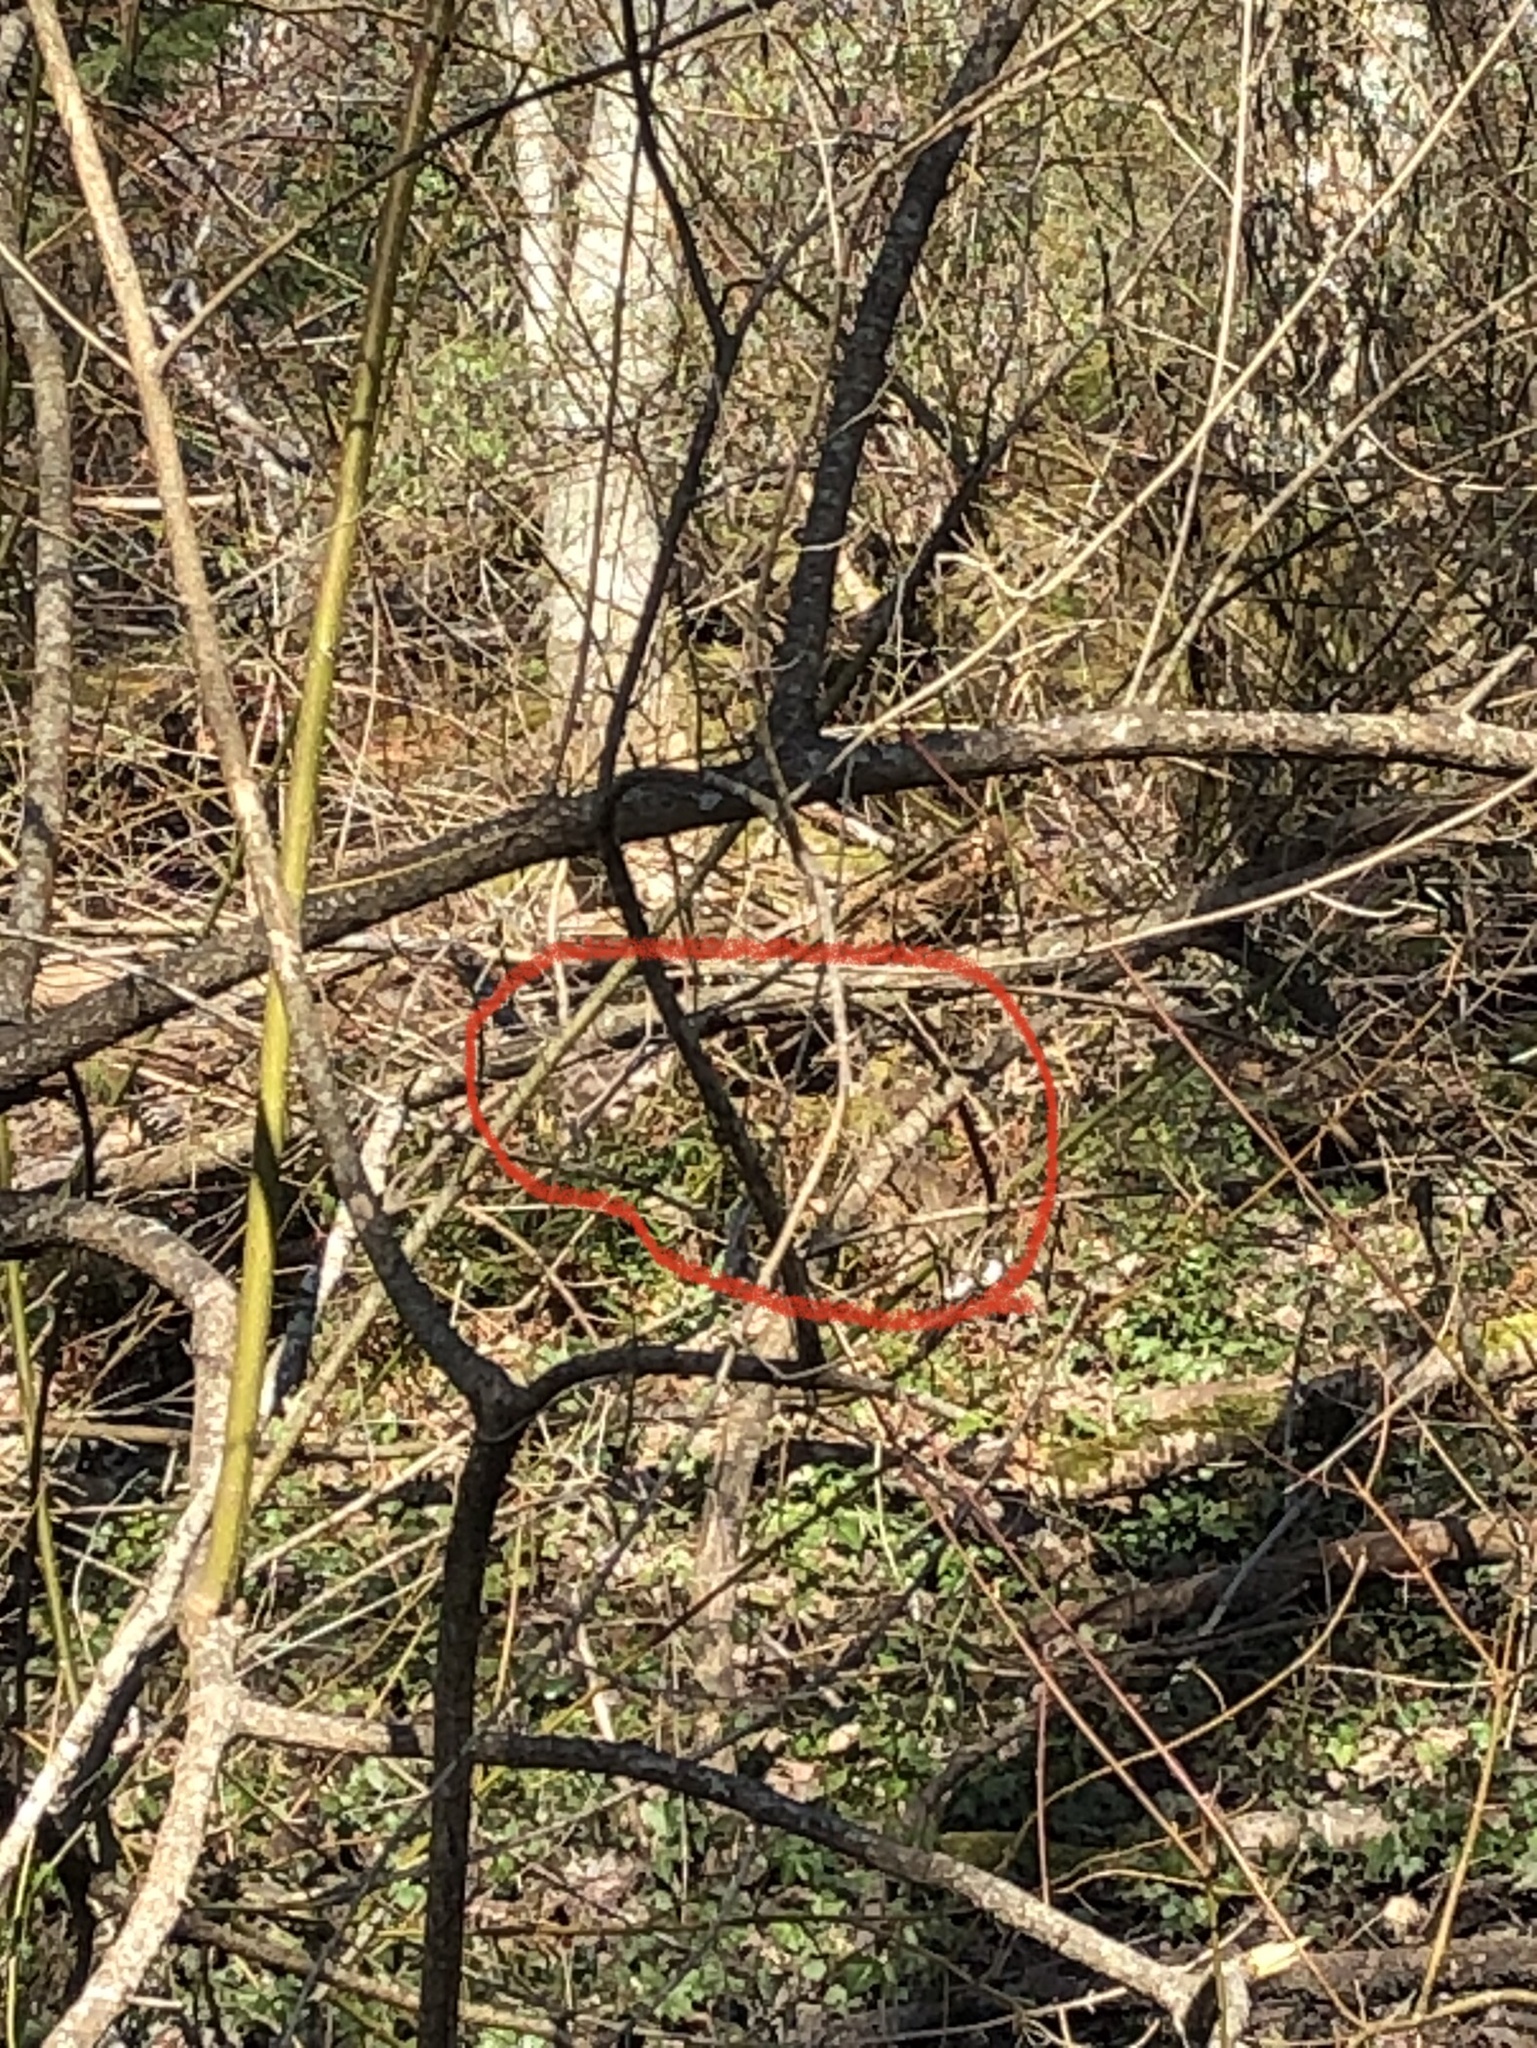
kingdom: Animalia
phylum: Chordata
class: Mammalia
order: Artiodactyla
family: Cervidae
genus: Odocoileus
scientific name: Odocoileus hemionus
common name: Mule deer
